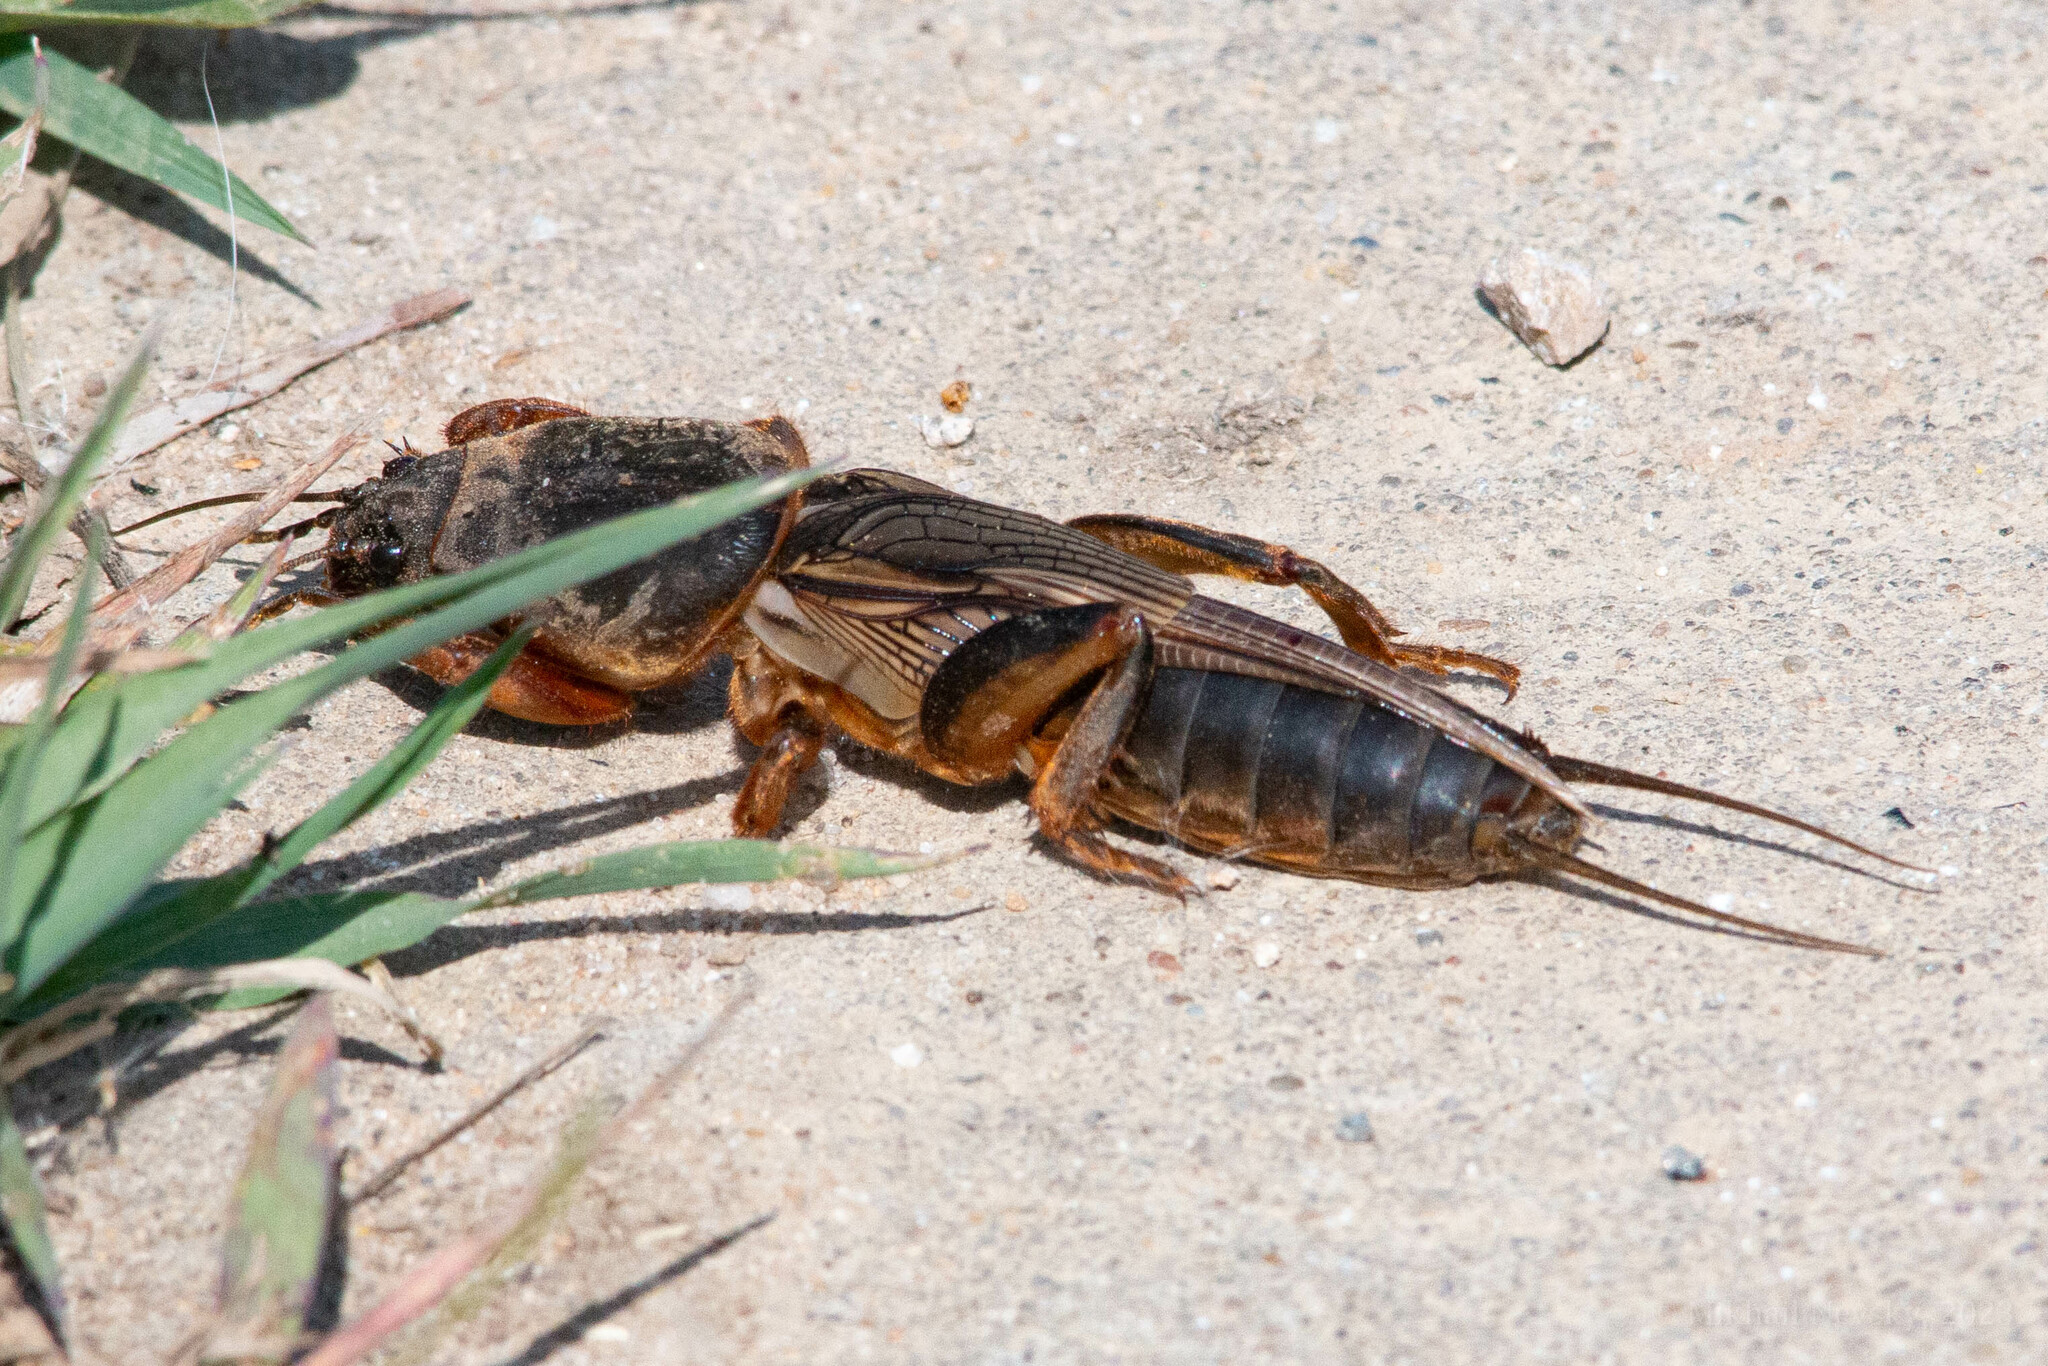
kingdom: Animalia
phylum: Arthropoda
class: Insecta
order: Orthoptera
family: Gryllotalpidae
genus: Gryllotalpa
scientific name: Gryllotalpa gryllotalpa
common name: European mole cricket
